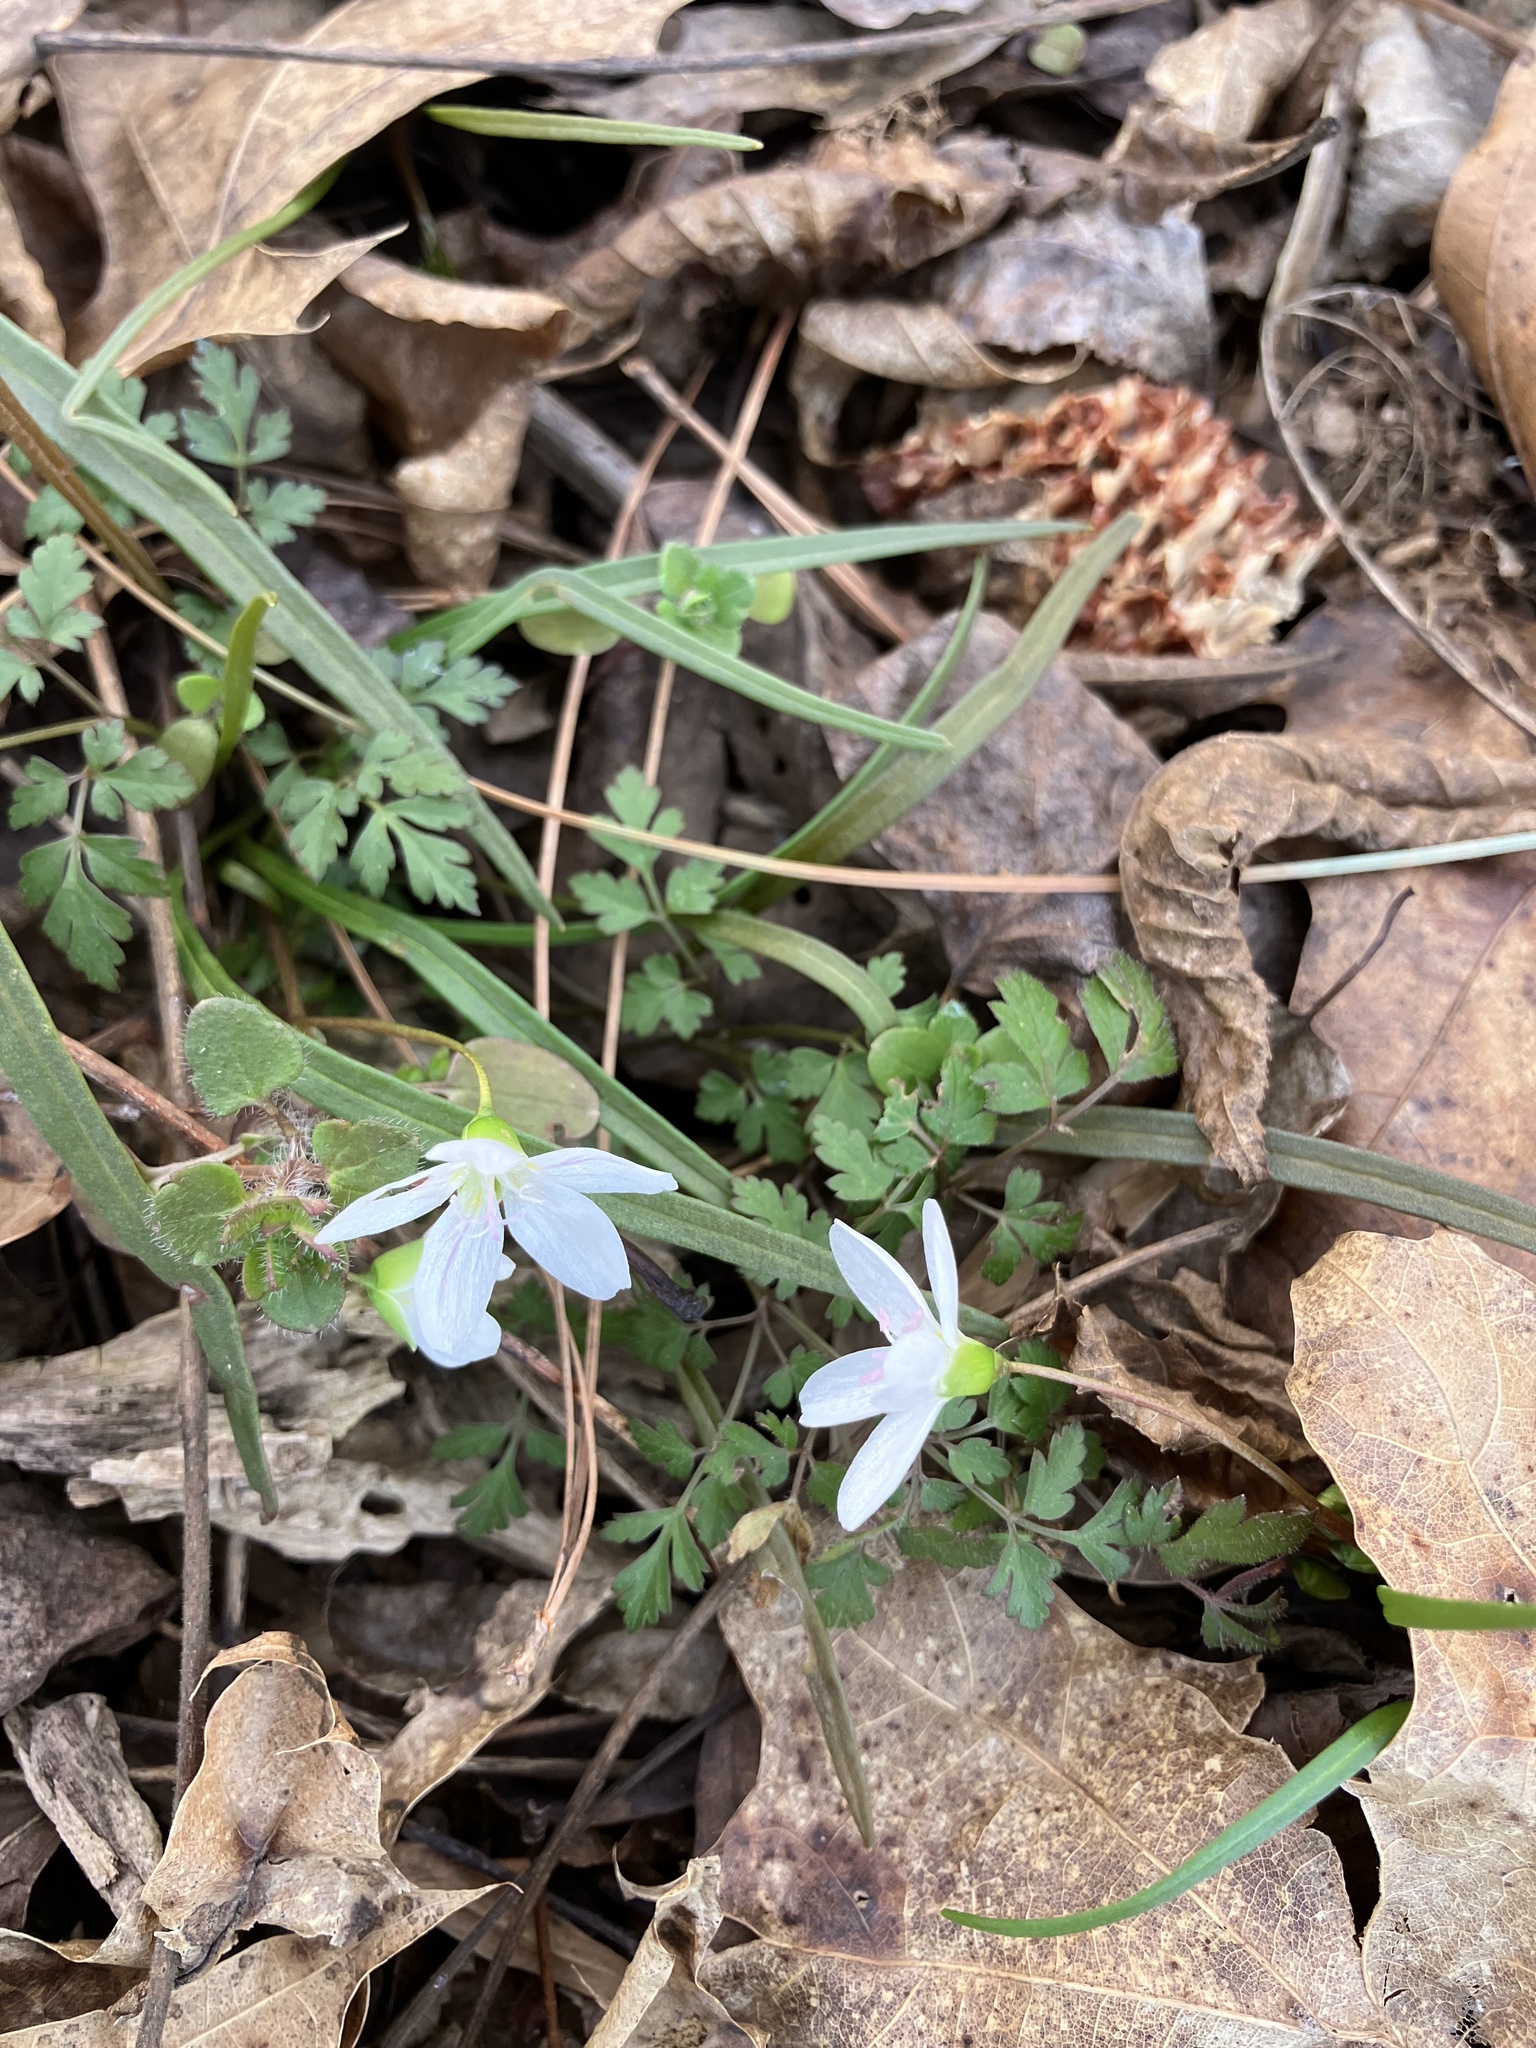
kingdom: Plantae
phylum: Tracheophyta
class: Magnoliopsida
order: Caryophyllales
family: Montiaceae
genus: Claytonia
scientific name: Claytonia virginica
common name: Virginia springbeauty
